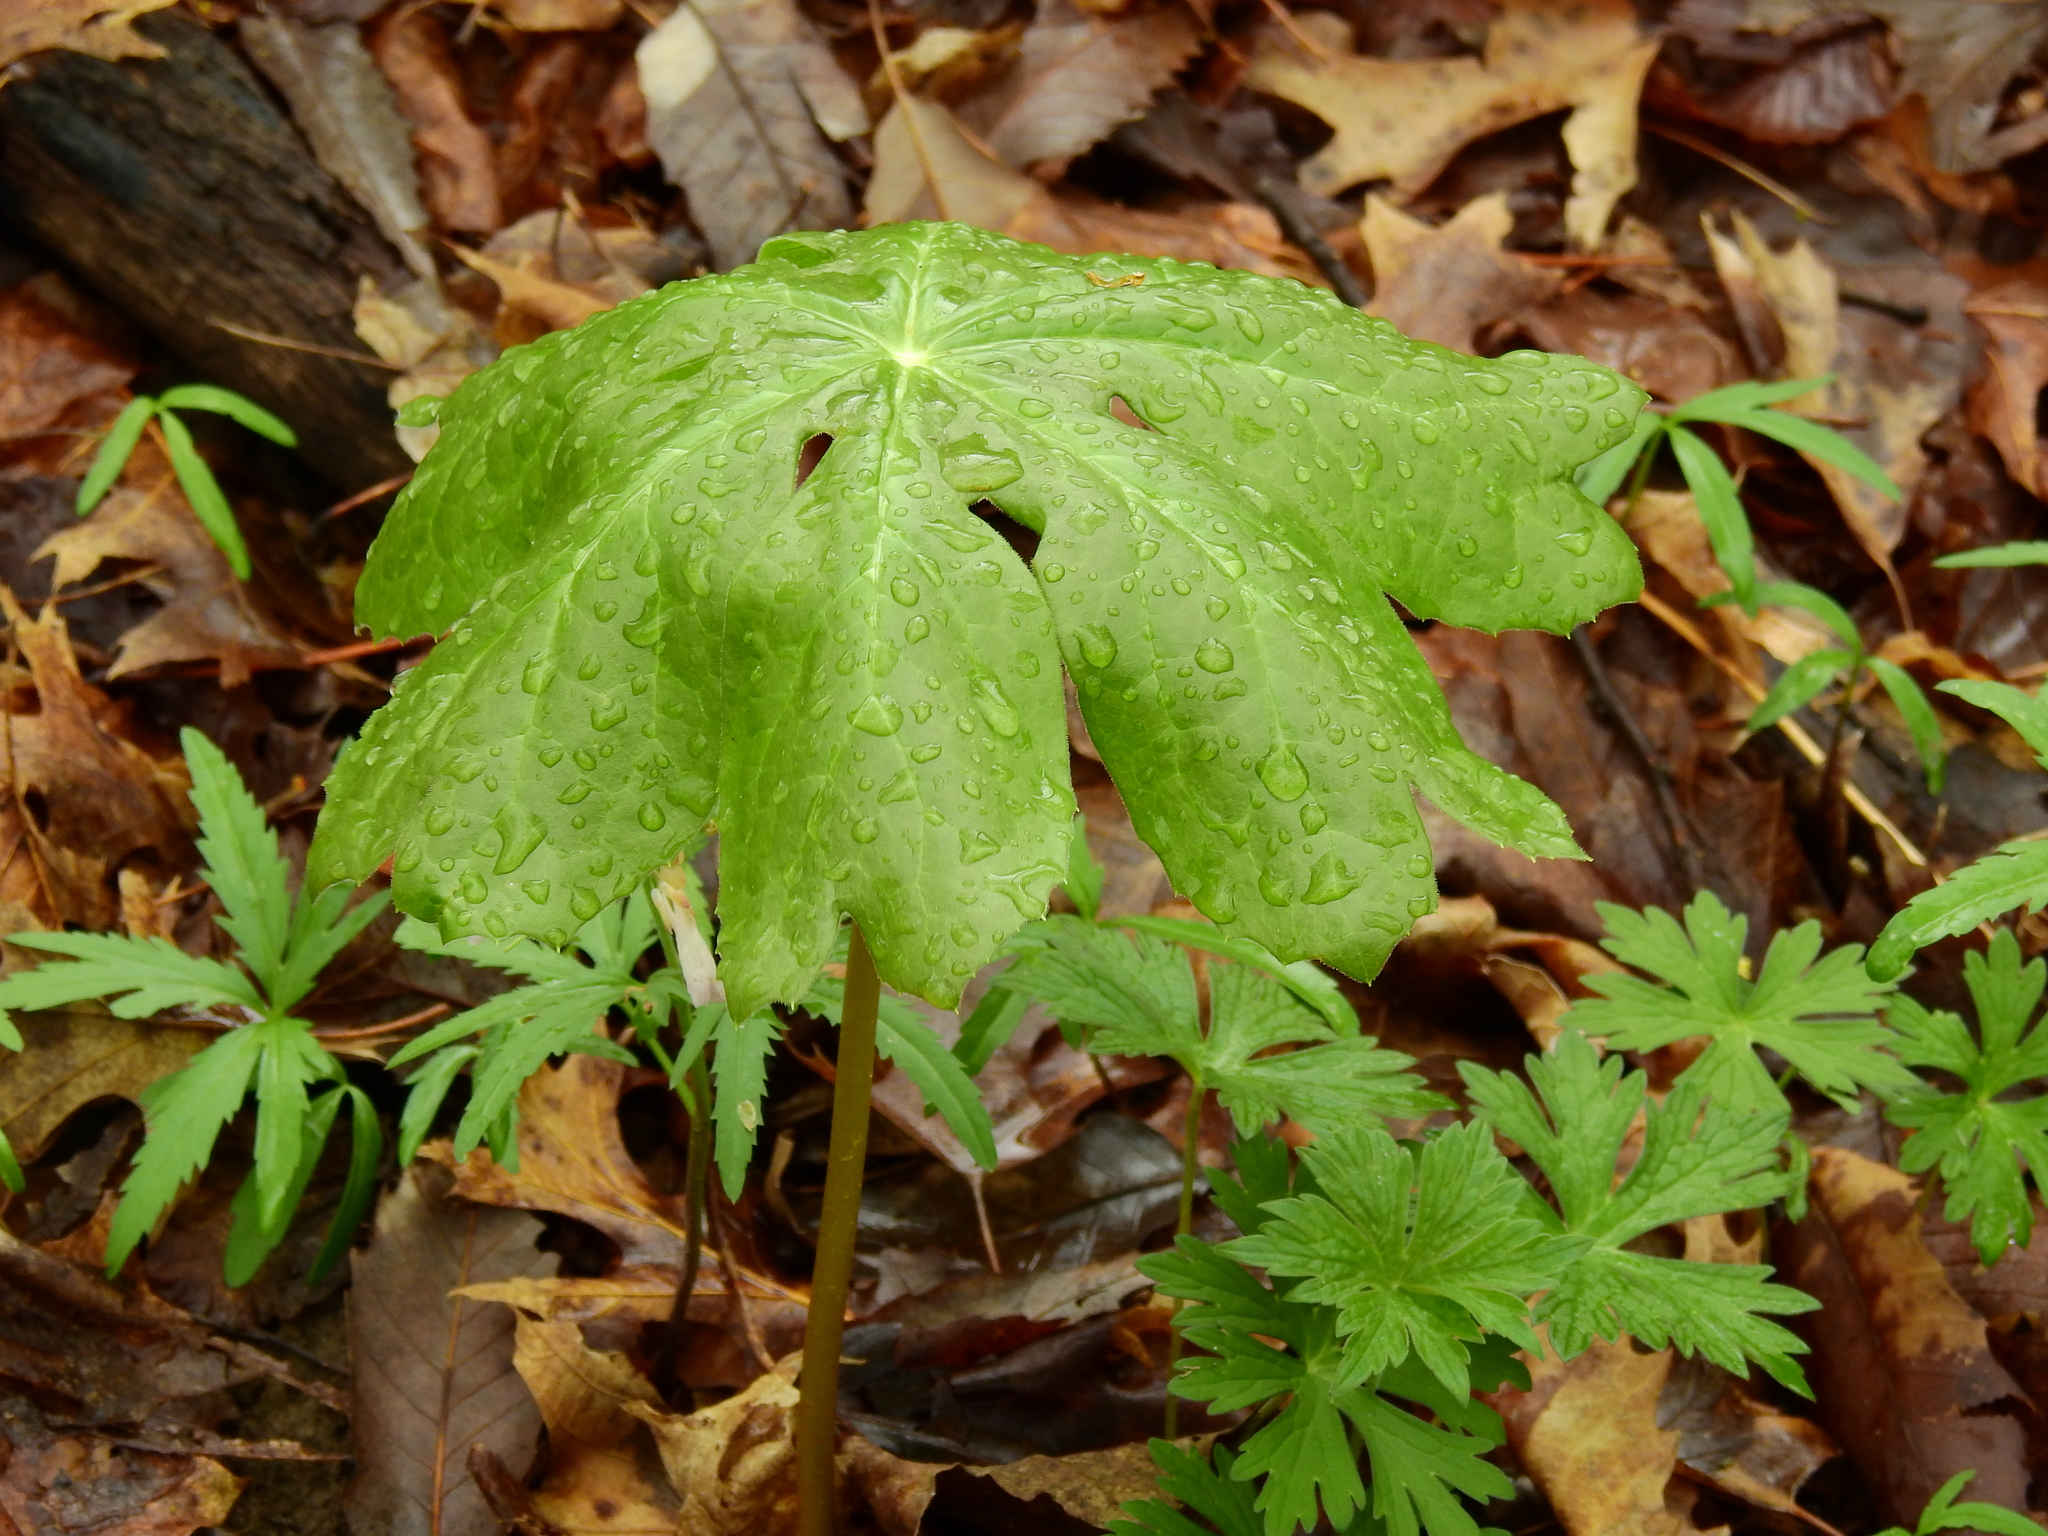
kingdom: Plantae
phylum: Tracheophyta
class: Magnoliopsida
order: Ranunculales
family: Berberidaceae
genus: Podophyllum
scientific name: Podophyllum peltatum
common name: Wild mandrake
